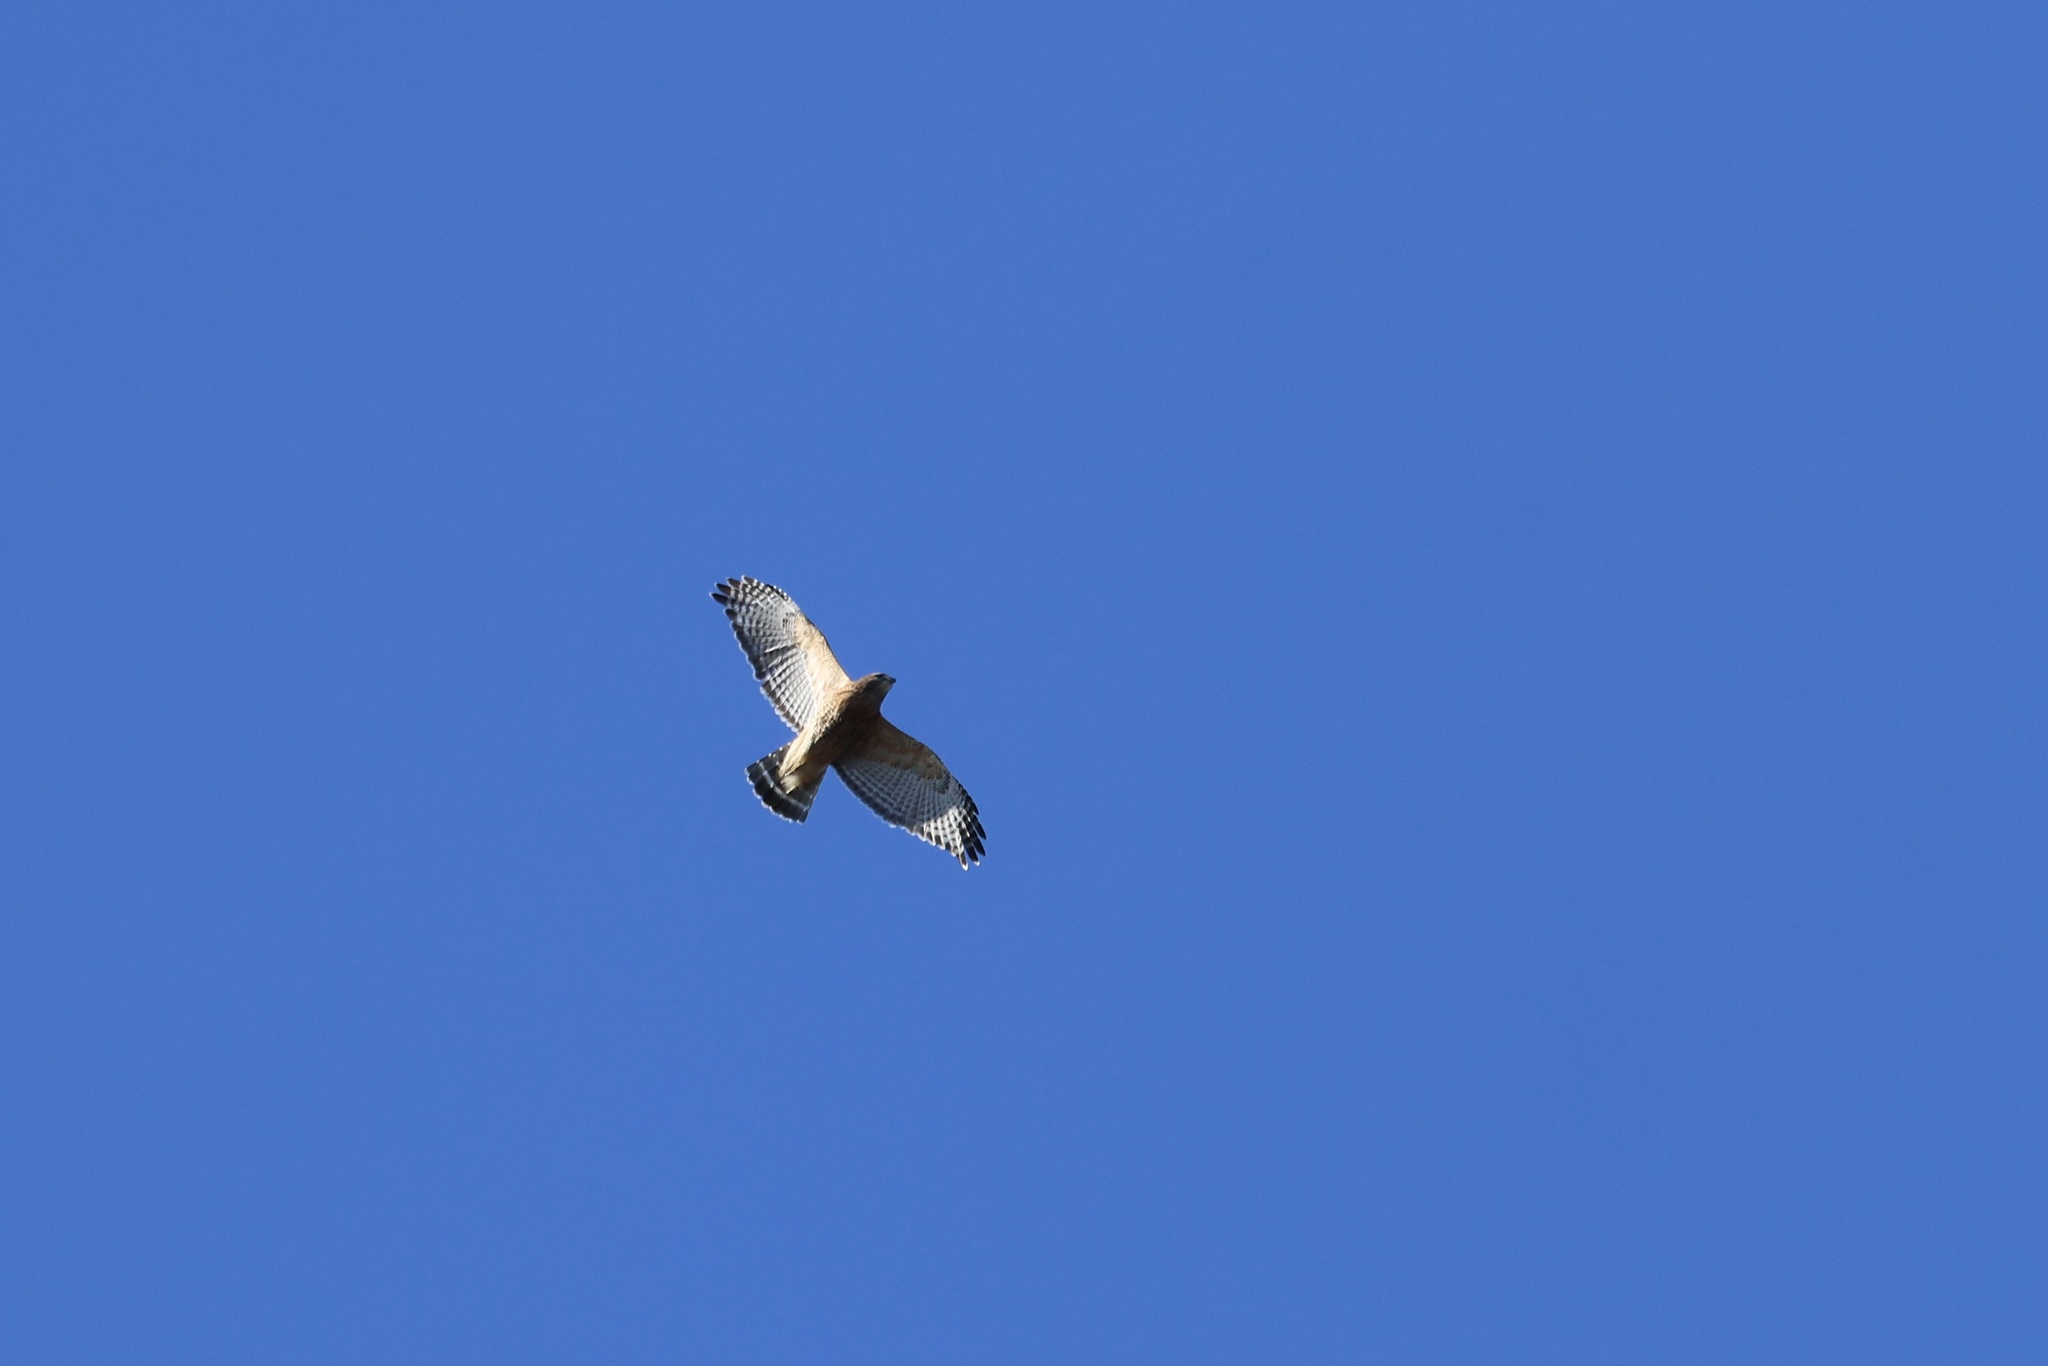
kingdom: Animalia
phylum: Chordata
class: Aves
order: Accipitriformes
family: Accipitridae
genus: Buteo
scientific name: Buteo lineatus
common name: Red-shouldered hawk
